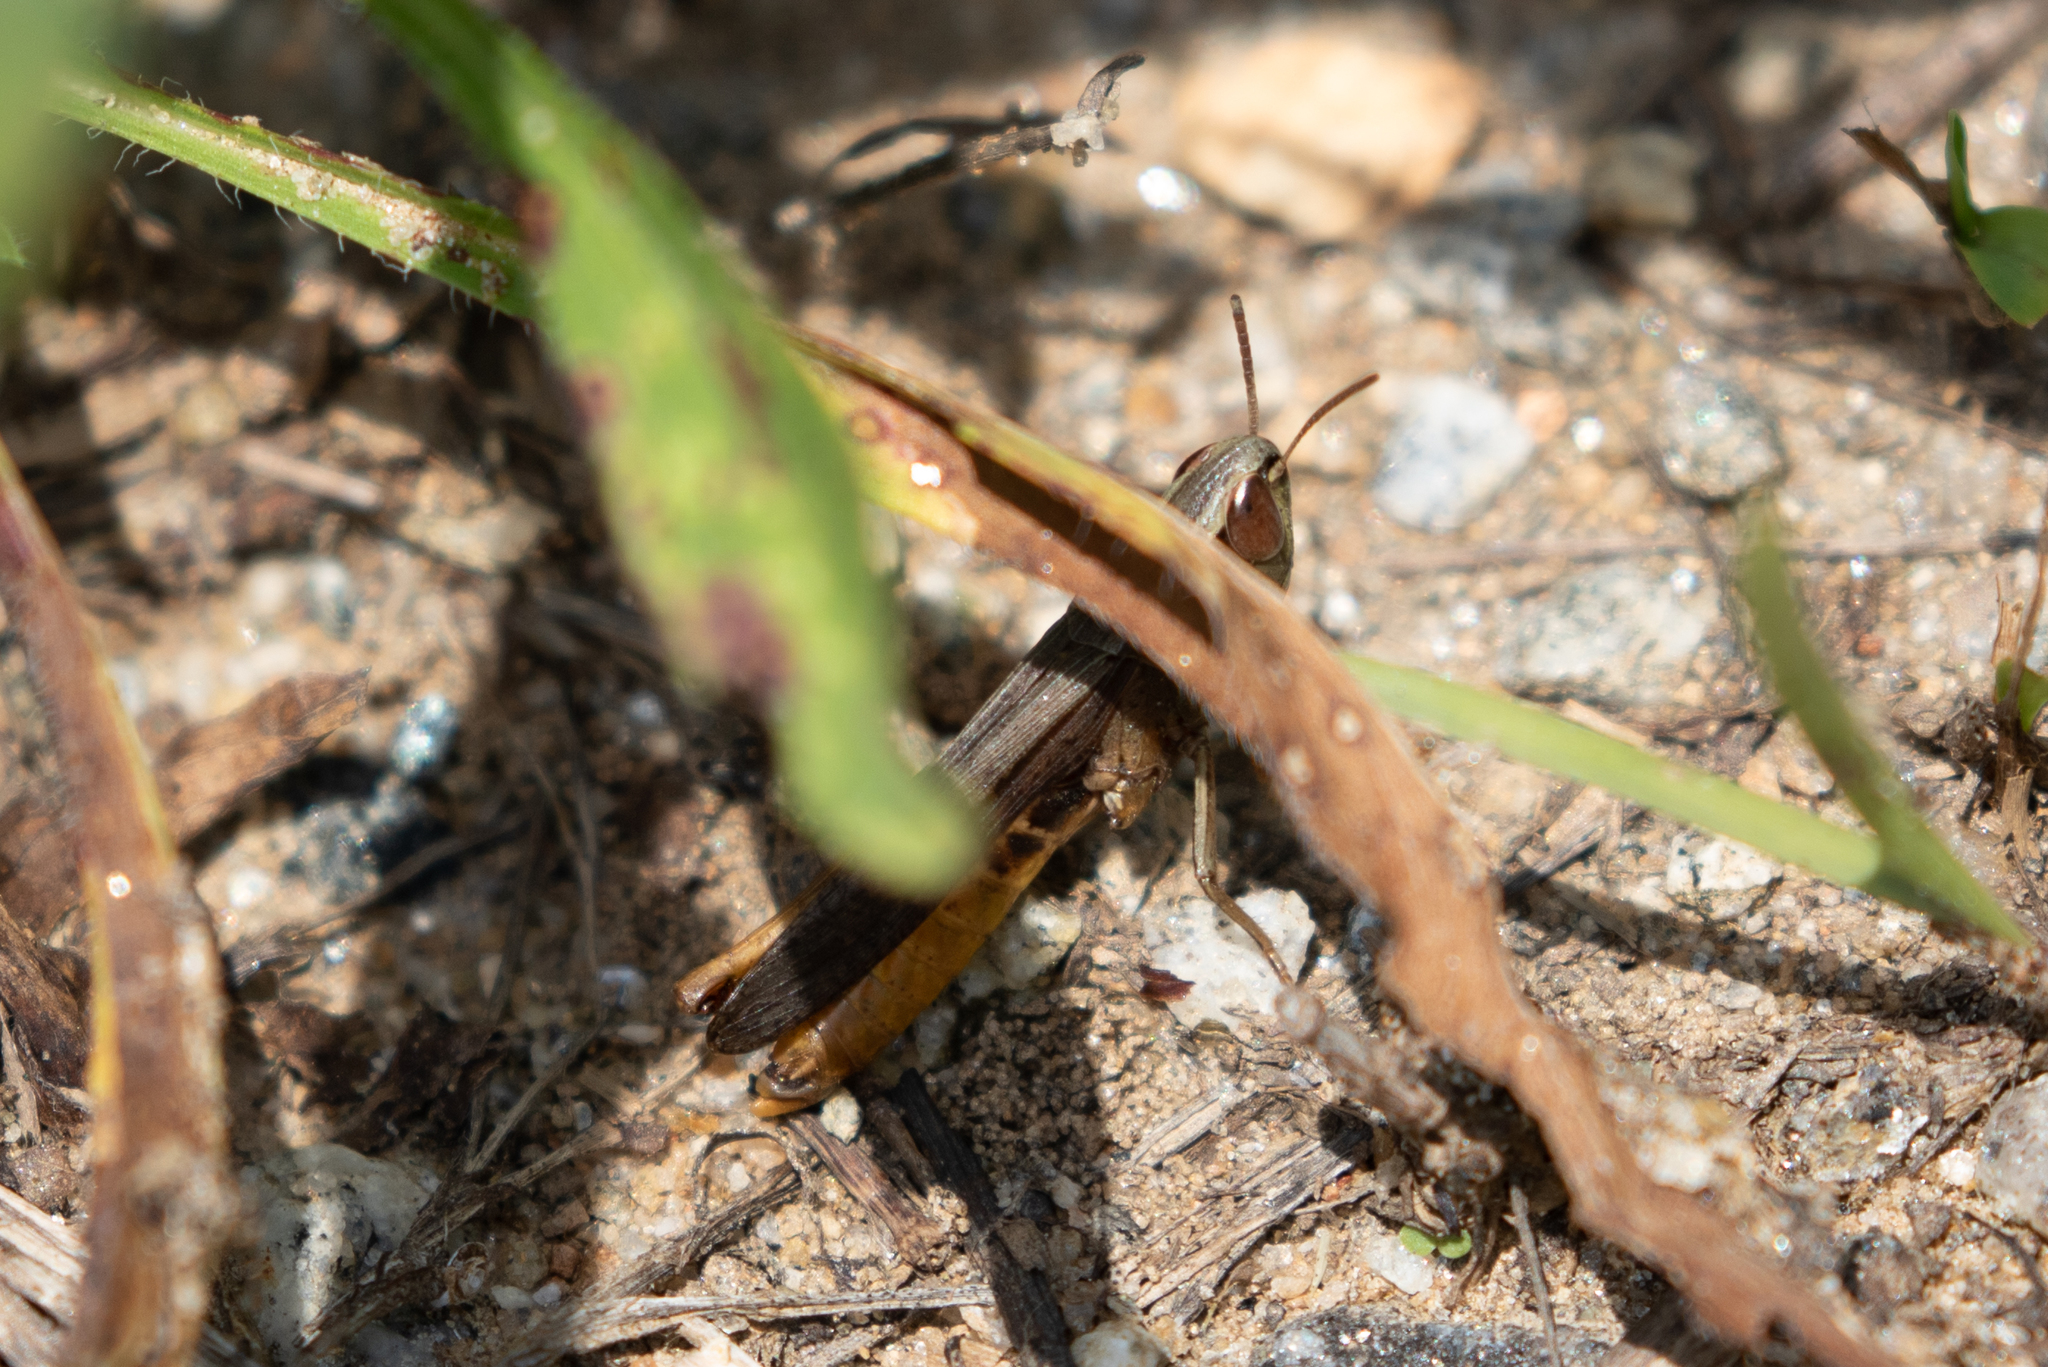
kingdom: Animalia
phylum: Arthropoda
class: Insecta
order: Orthoptera
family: Acrididae
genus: Amblytropidia
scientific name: Amblytropidia mysteca
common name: Brown winter grasshopper
